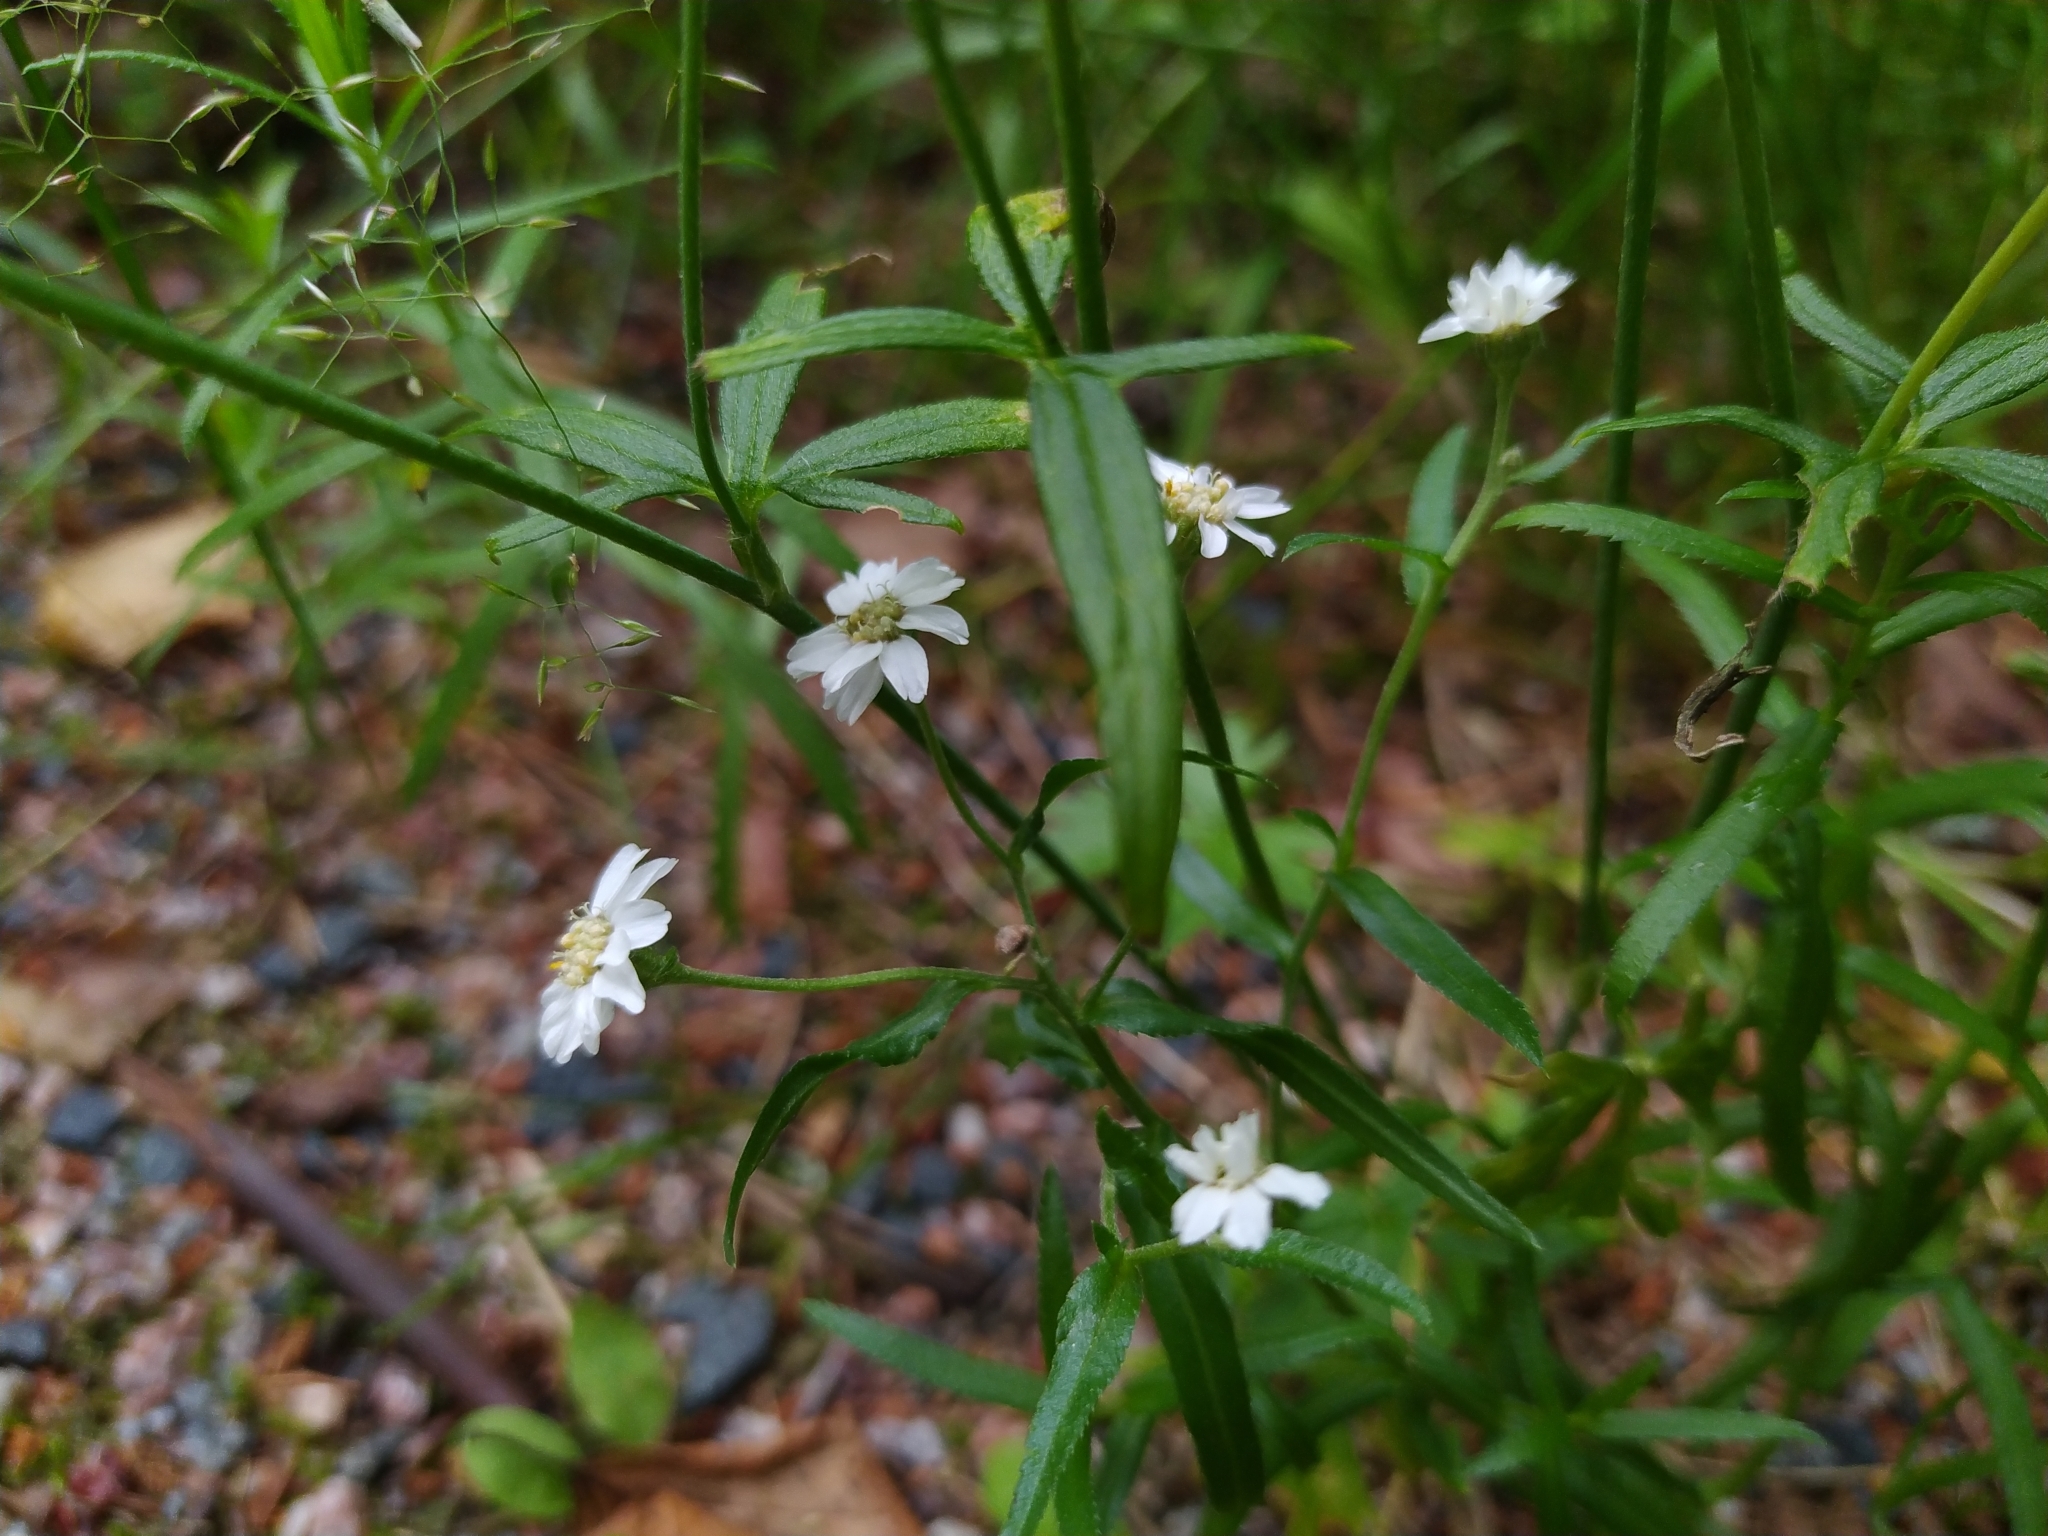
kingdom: Plantae
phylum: Tracheophyta
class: Magnoliopsida
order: Asterales
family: Asteraceae
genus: Achillea
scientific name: Achillea ptarmica
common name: Sneezeweed
